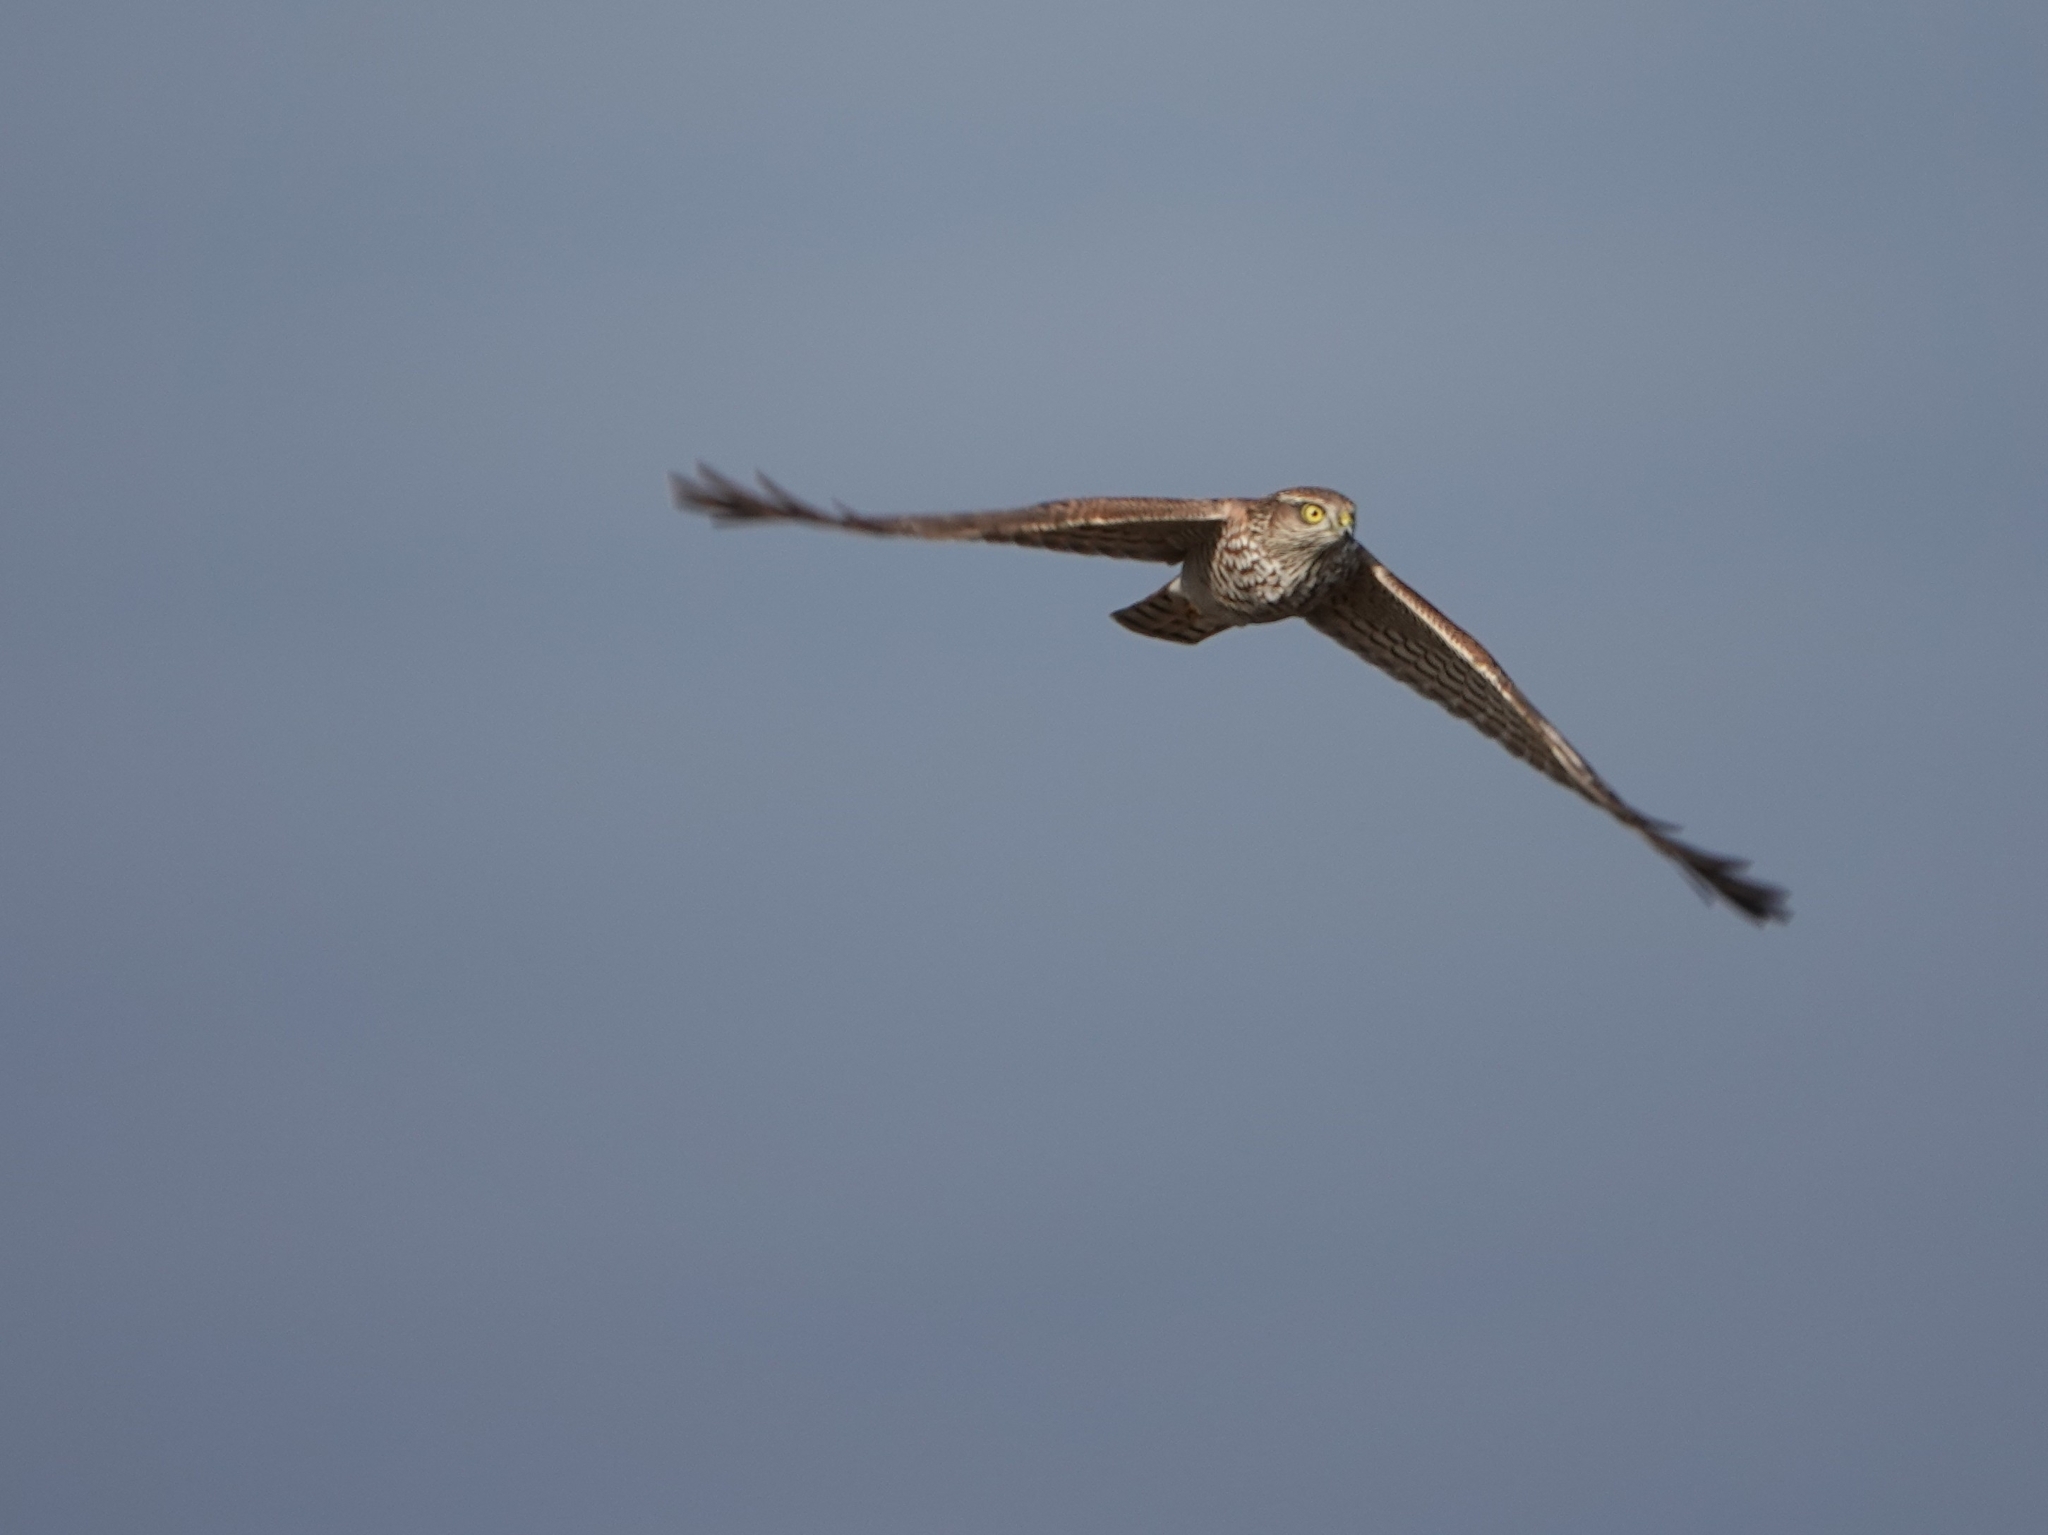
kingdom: Animalia
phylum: Chordata
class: Aves
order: Accipitriformes
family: Accipitridae
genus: Accipiter
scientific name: Accipiter nisus
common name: Eurasian sparrowhawk
